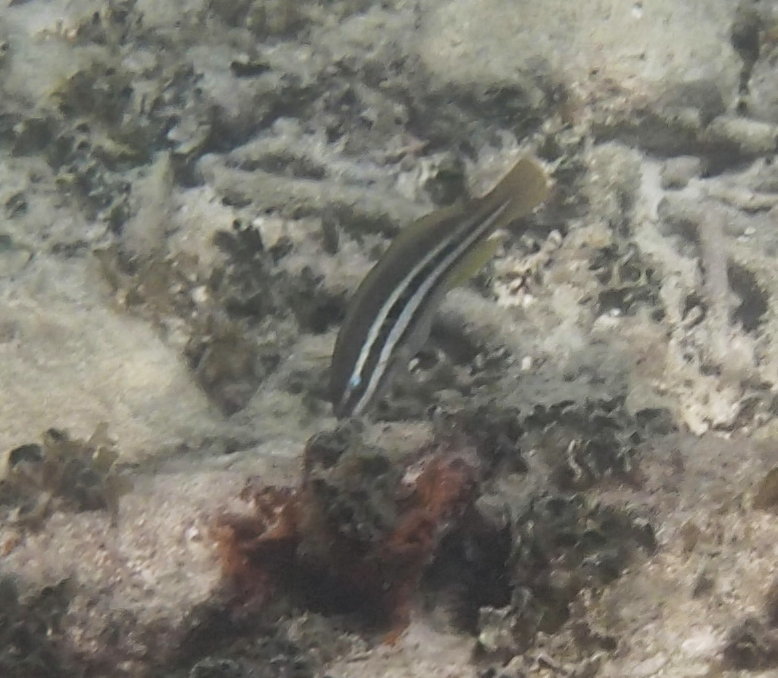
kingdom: Animalia
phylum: Chordata
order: Perciformes
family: Scaridae
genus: Scarus
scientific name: Scarus taeniopterus
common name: Princess parrotfish
